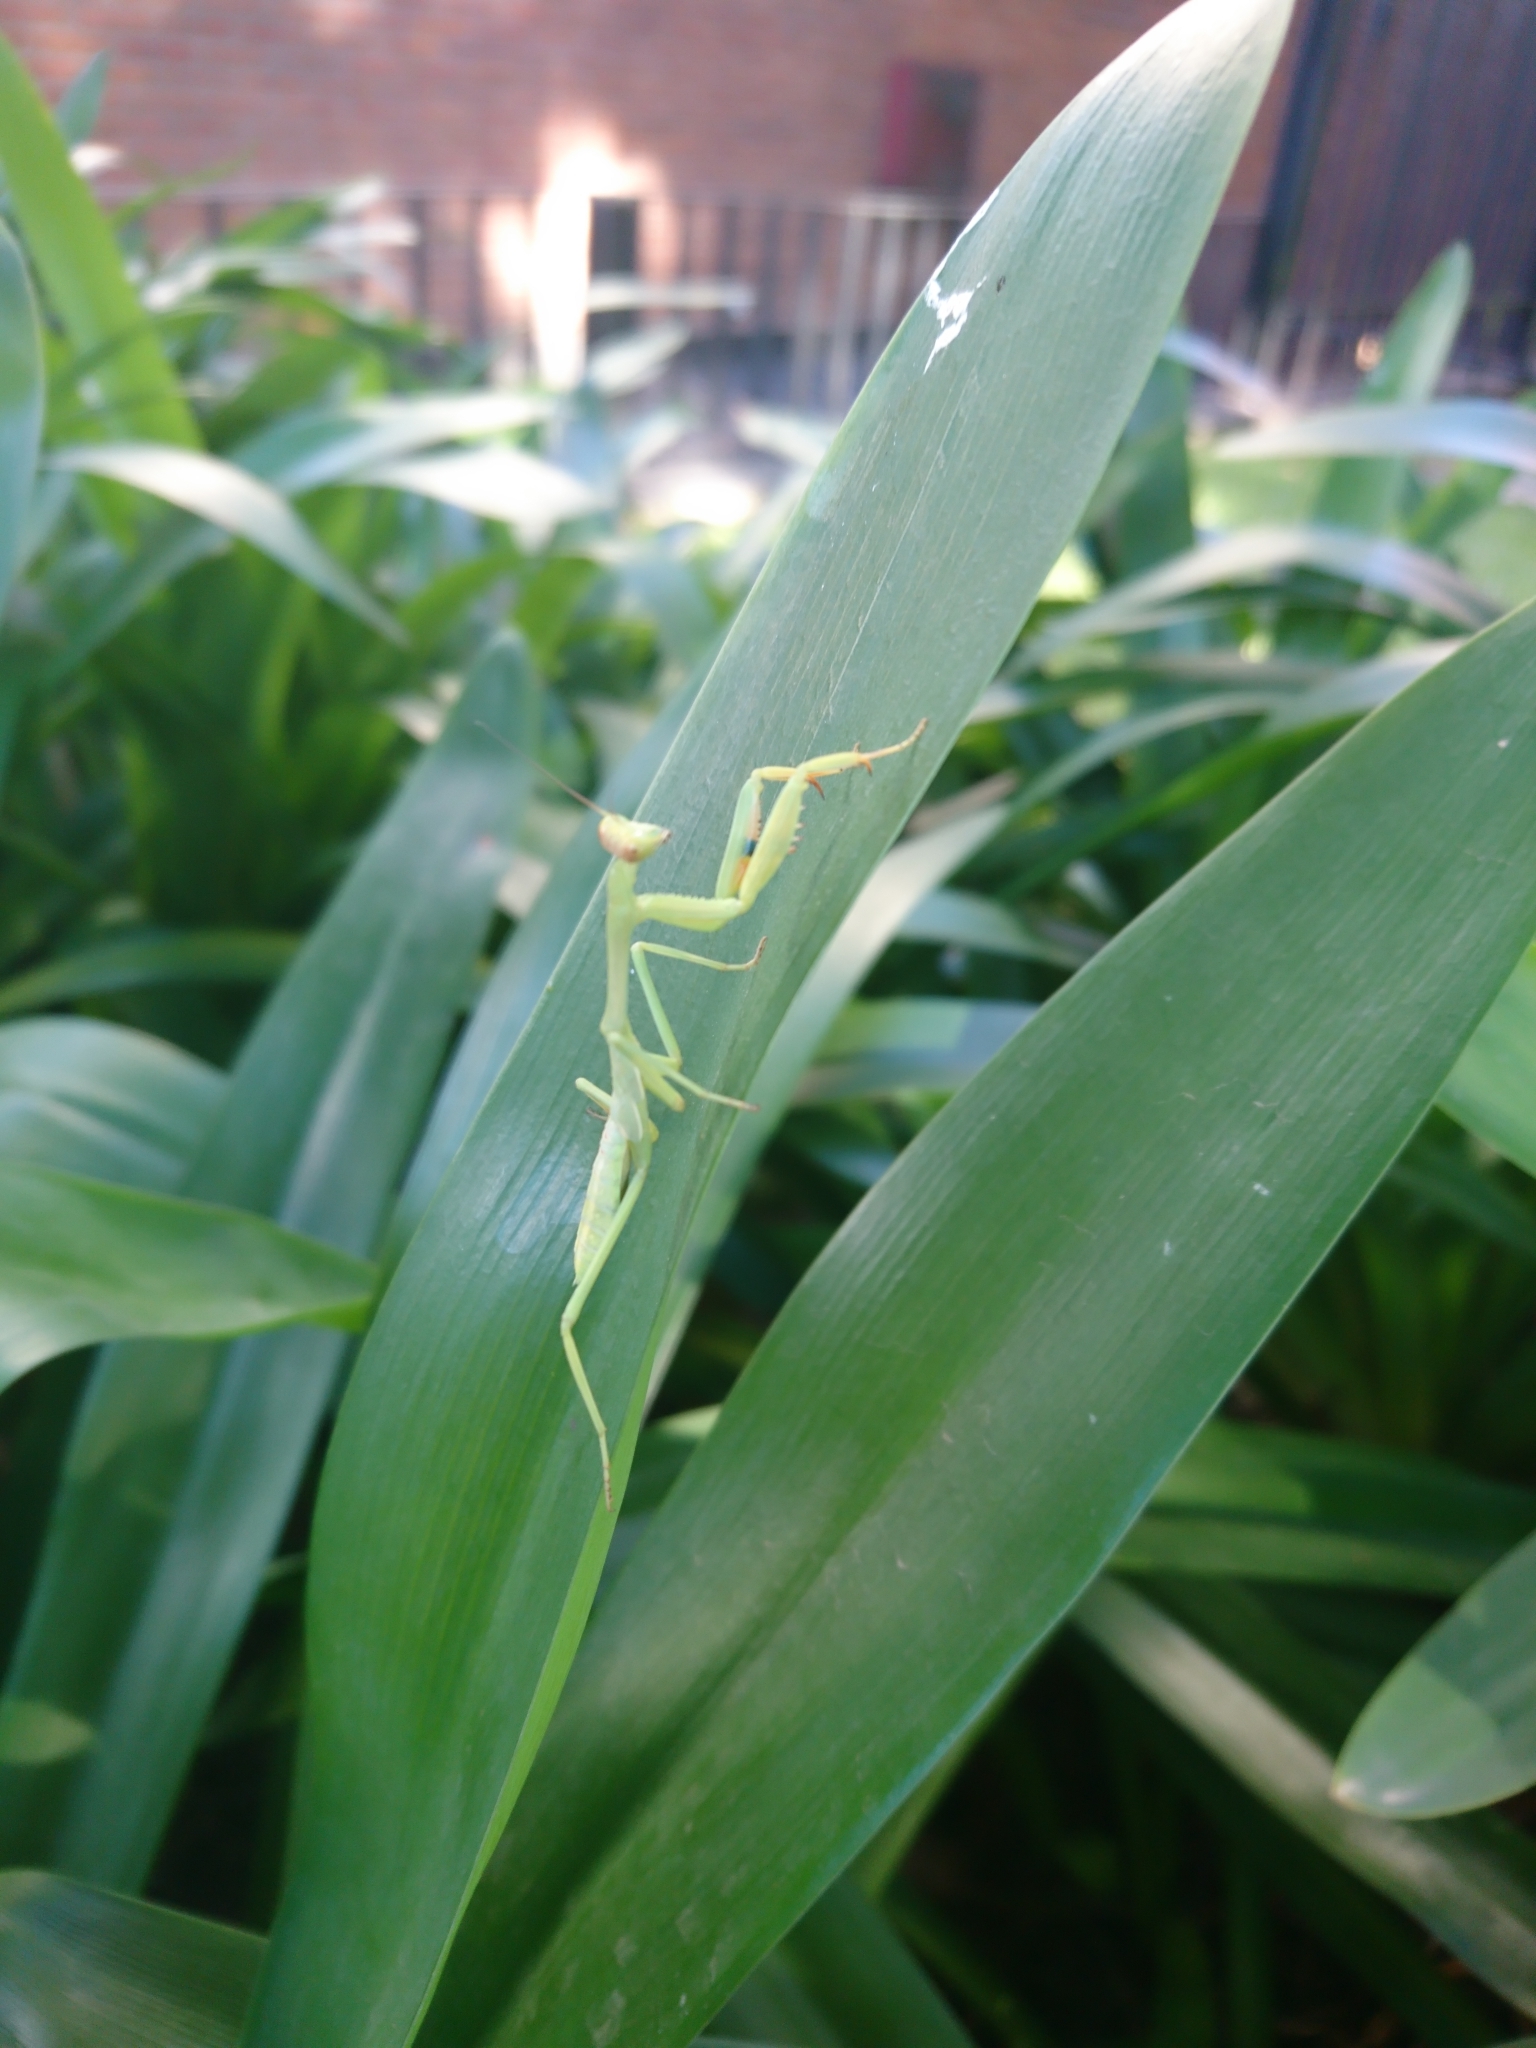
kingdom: Animalia
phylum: Arthropoda
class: Insecta
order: Mantodea
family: Mantidae
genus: Stagmatoptera
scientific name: Stagmatoptera hyaloptera
